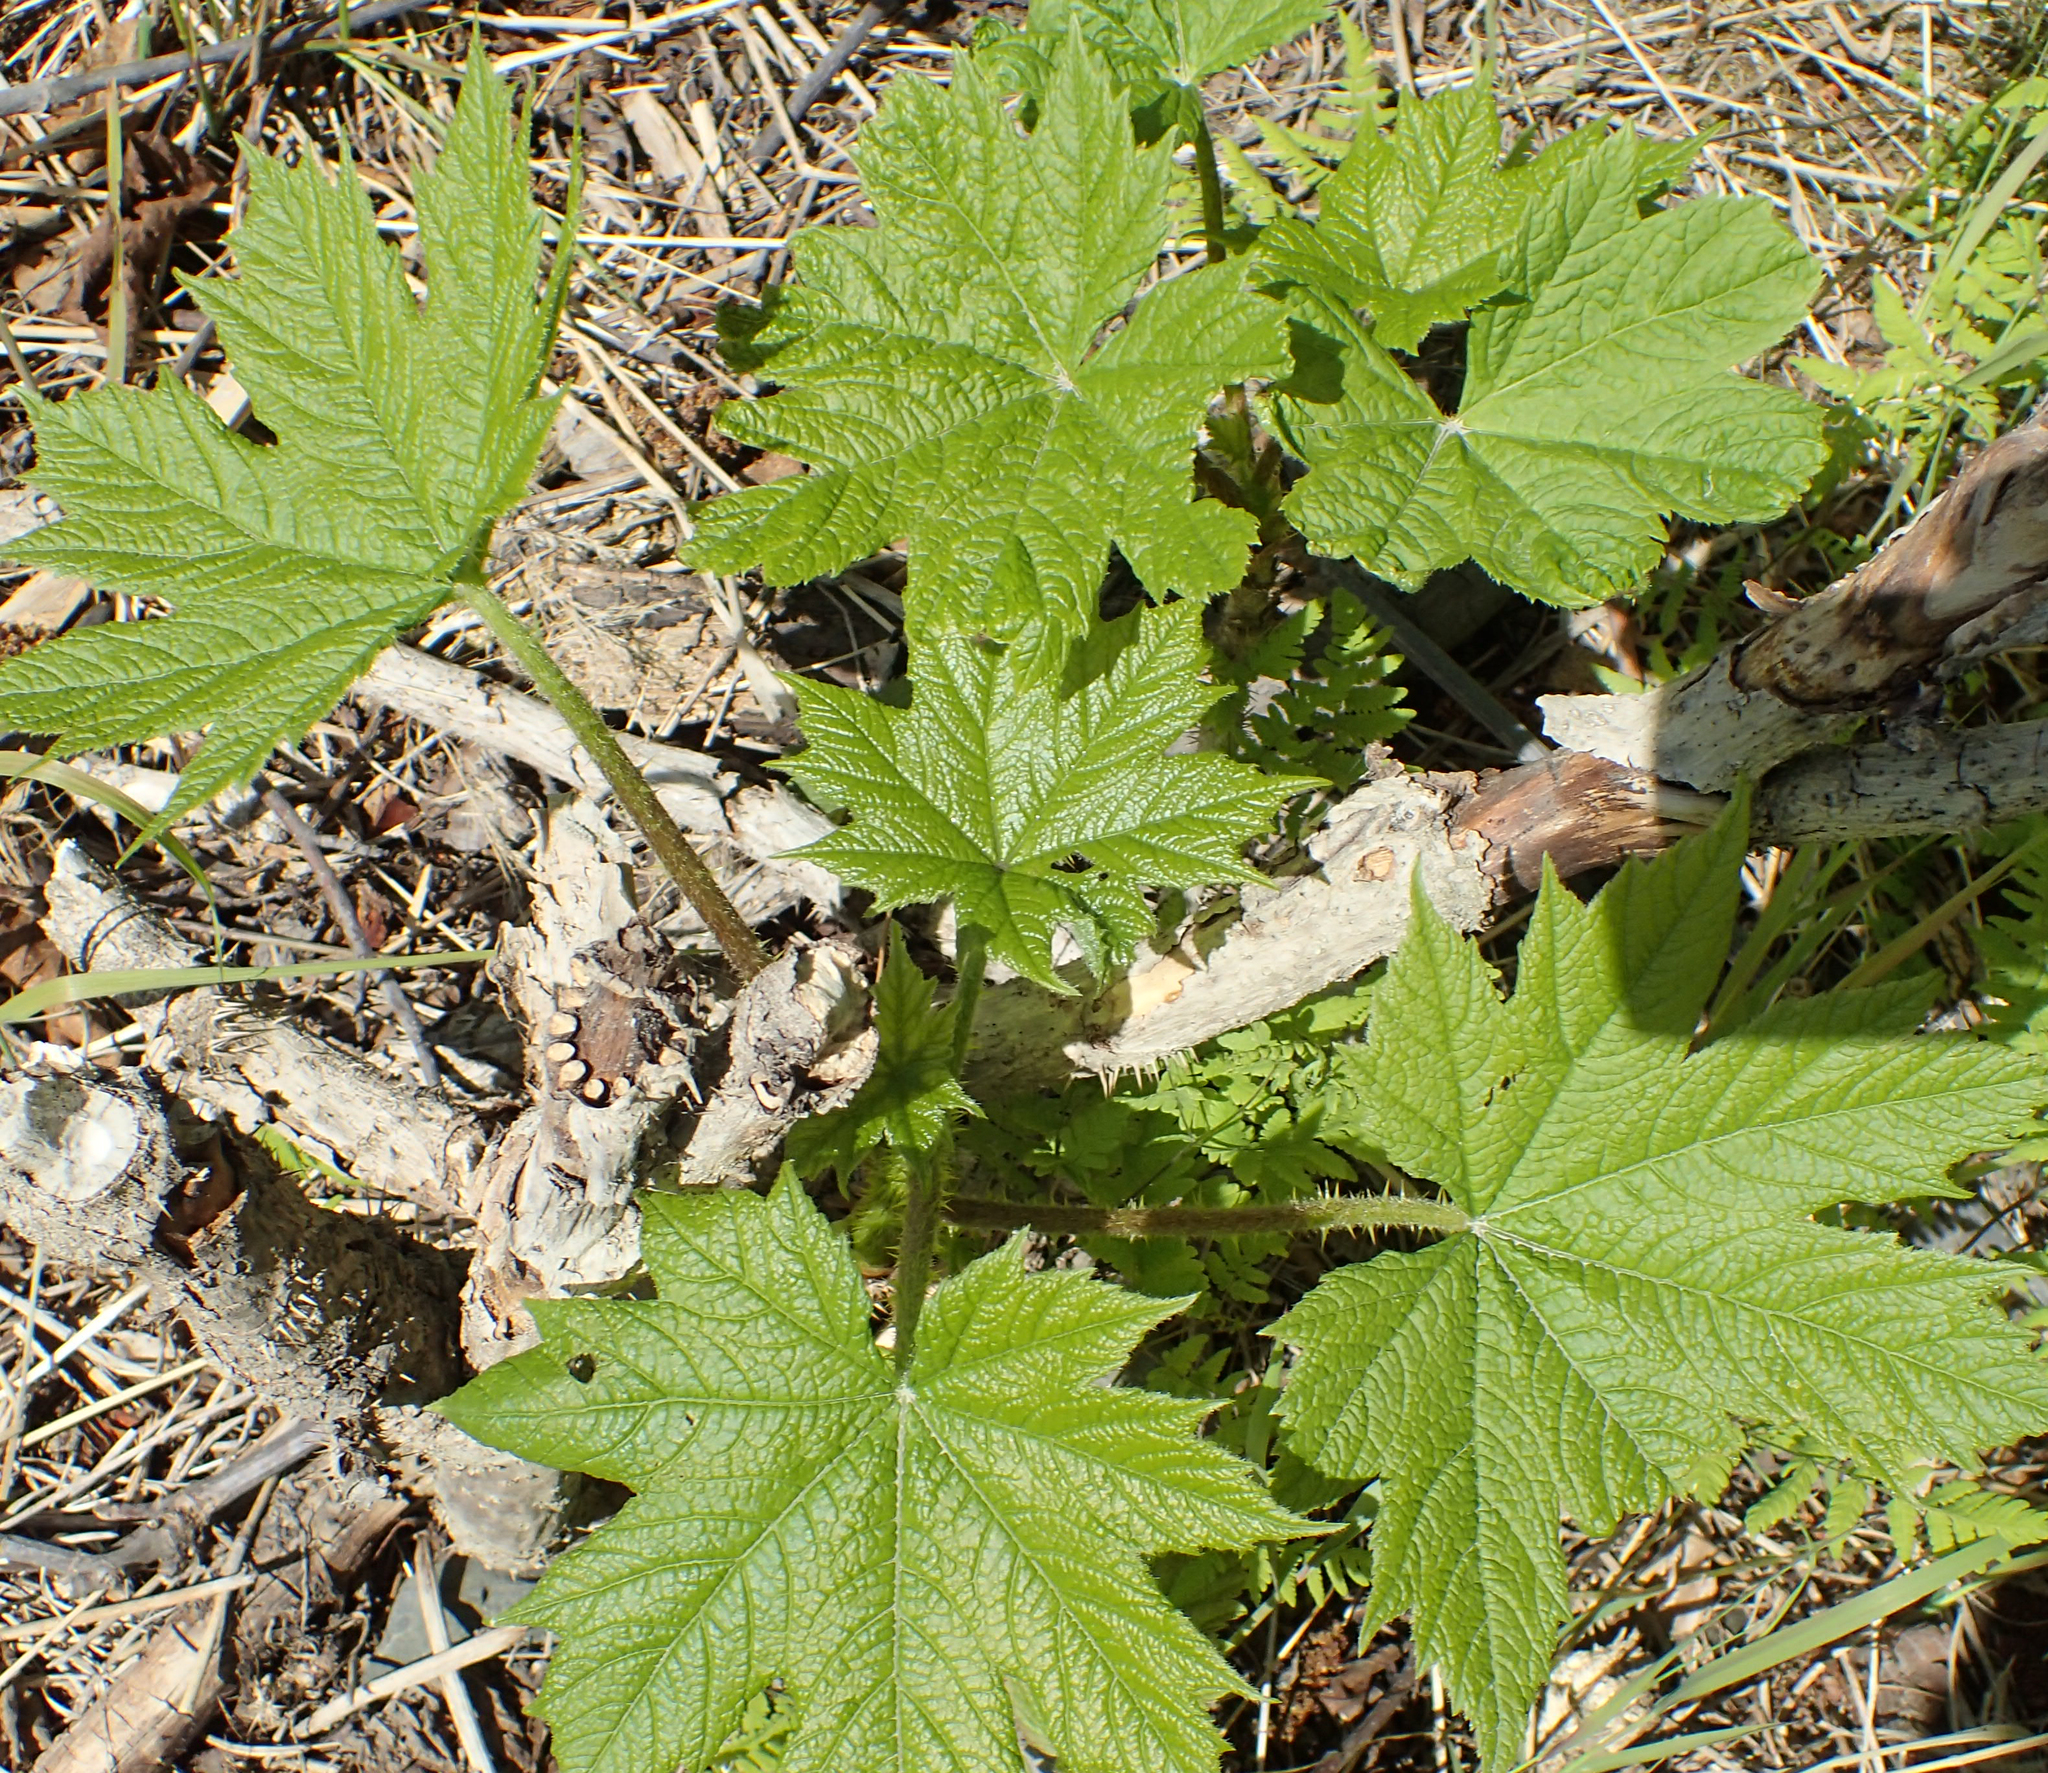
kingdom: Plantae
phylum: Tracheophyta
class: Magnoliopsida
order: Apiales
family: Araliaceae
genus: Oplopanax
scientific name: Oplopanax horridus
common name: Devil's walking-stick
